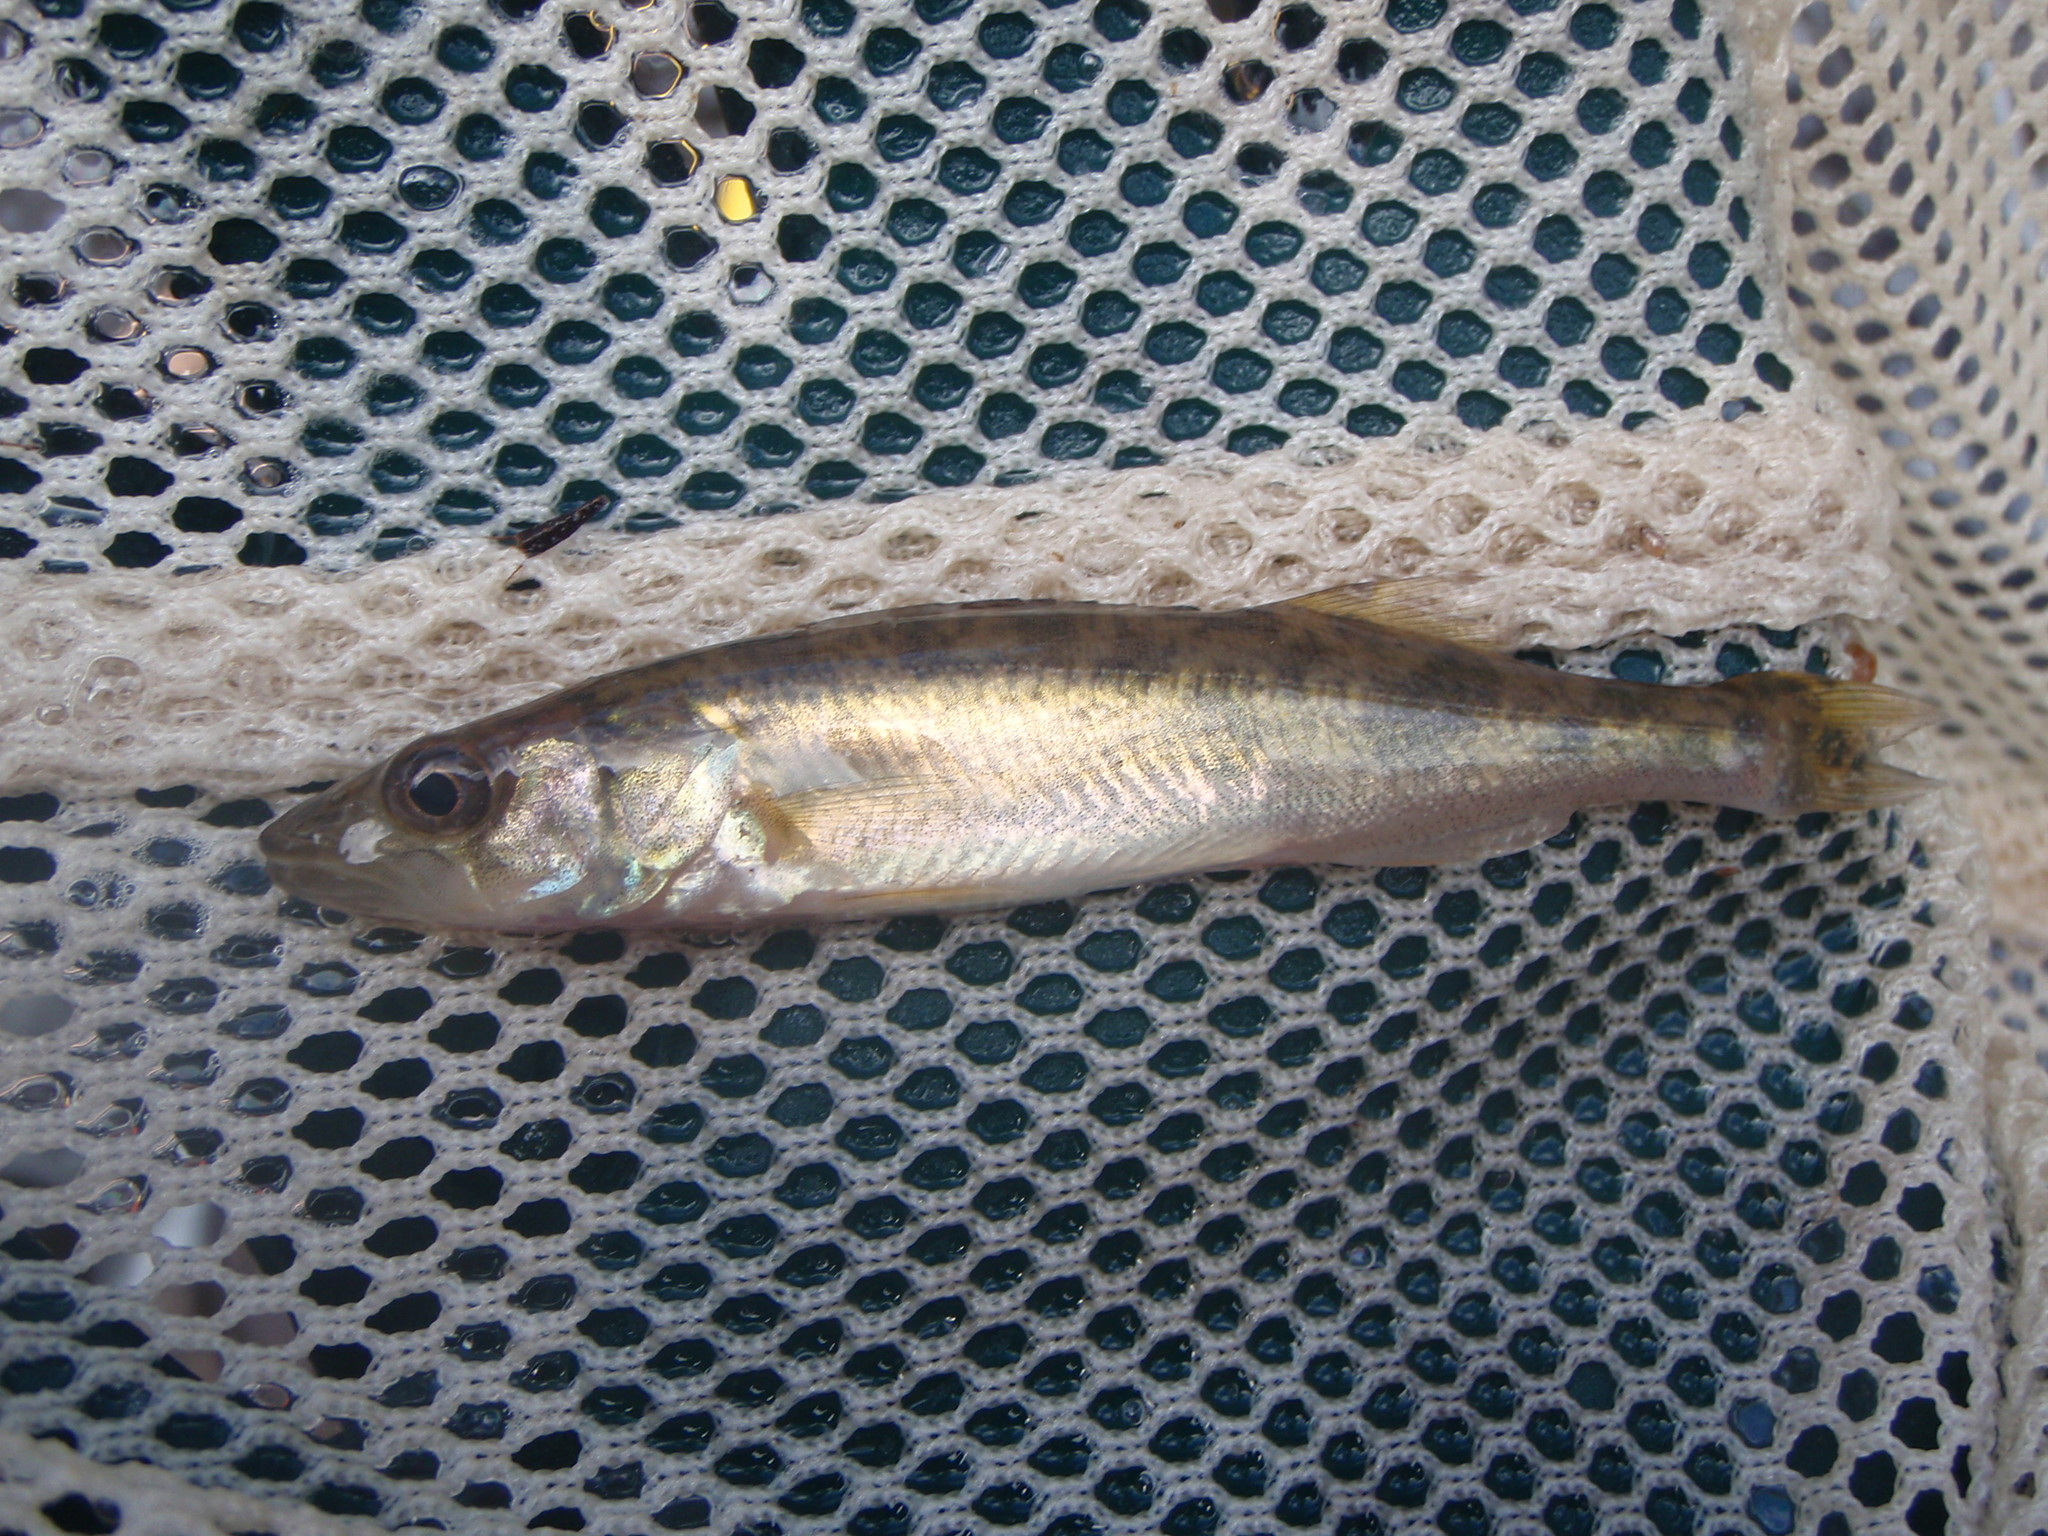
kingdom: Animalia
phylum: Chordata
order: Perciformes
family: Percidae
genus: Sander
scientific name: Sander vitreus
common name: Walleye
